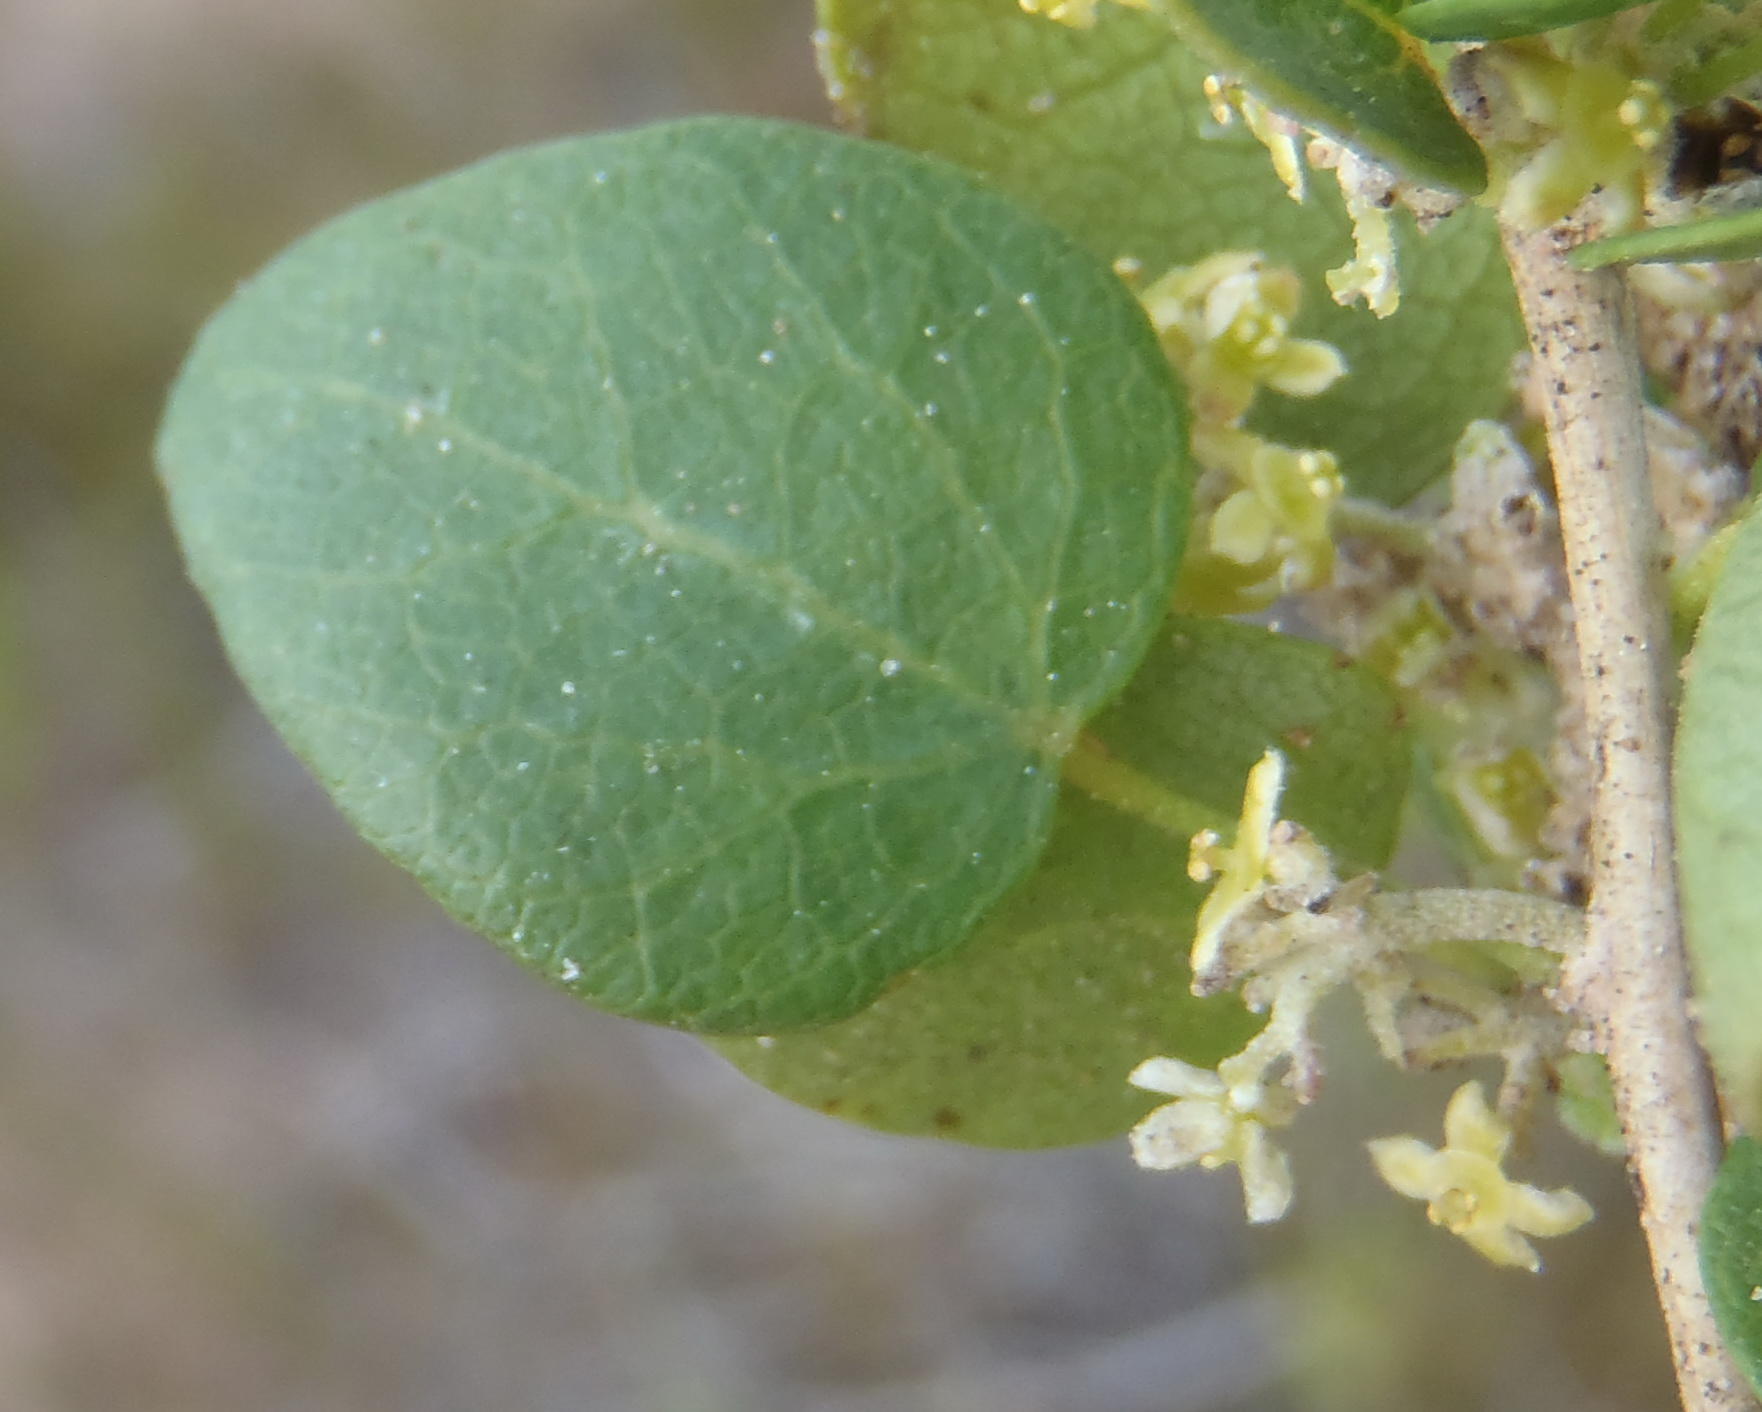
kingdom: Plantae
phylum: Tracheophyta
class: Magnoliopsida
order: Ranunculales
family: Menispermaceae
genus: Cissampelos
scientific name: Cissampelos capensis
